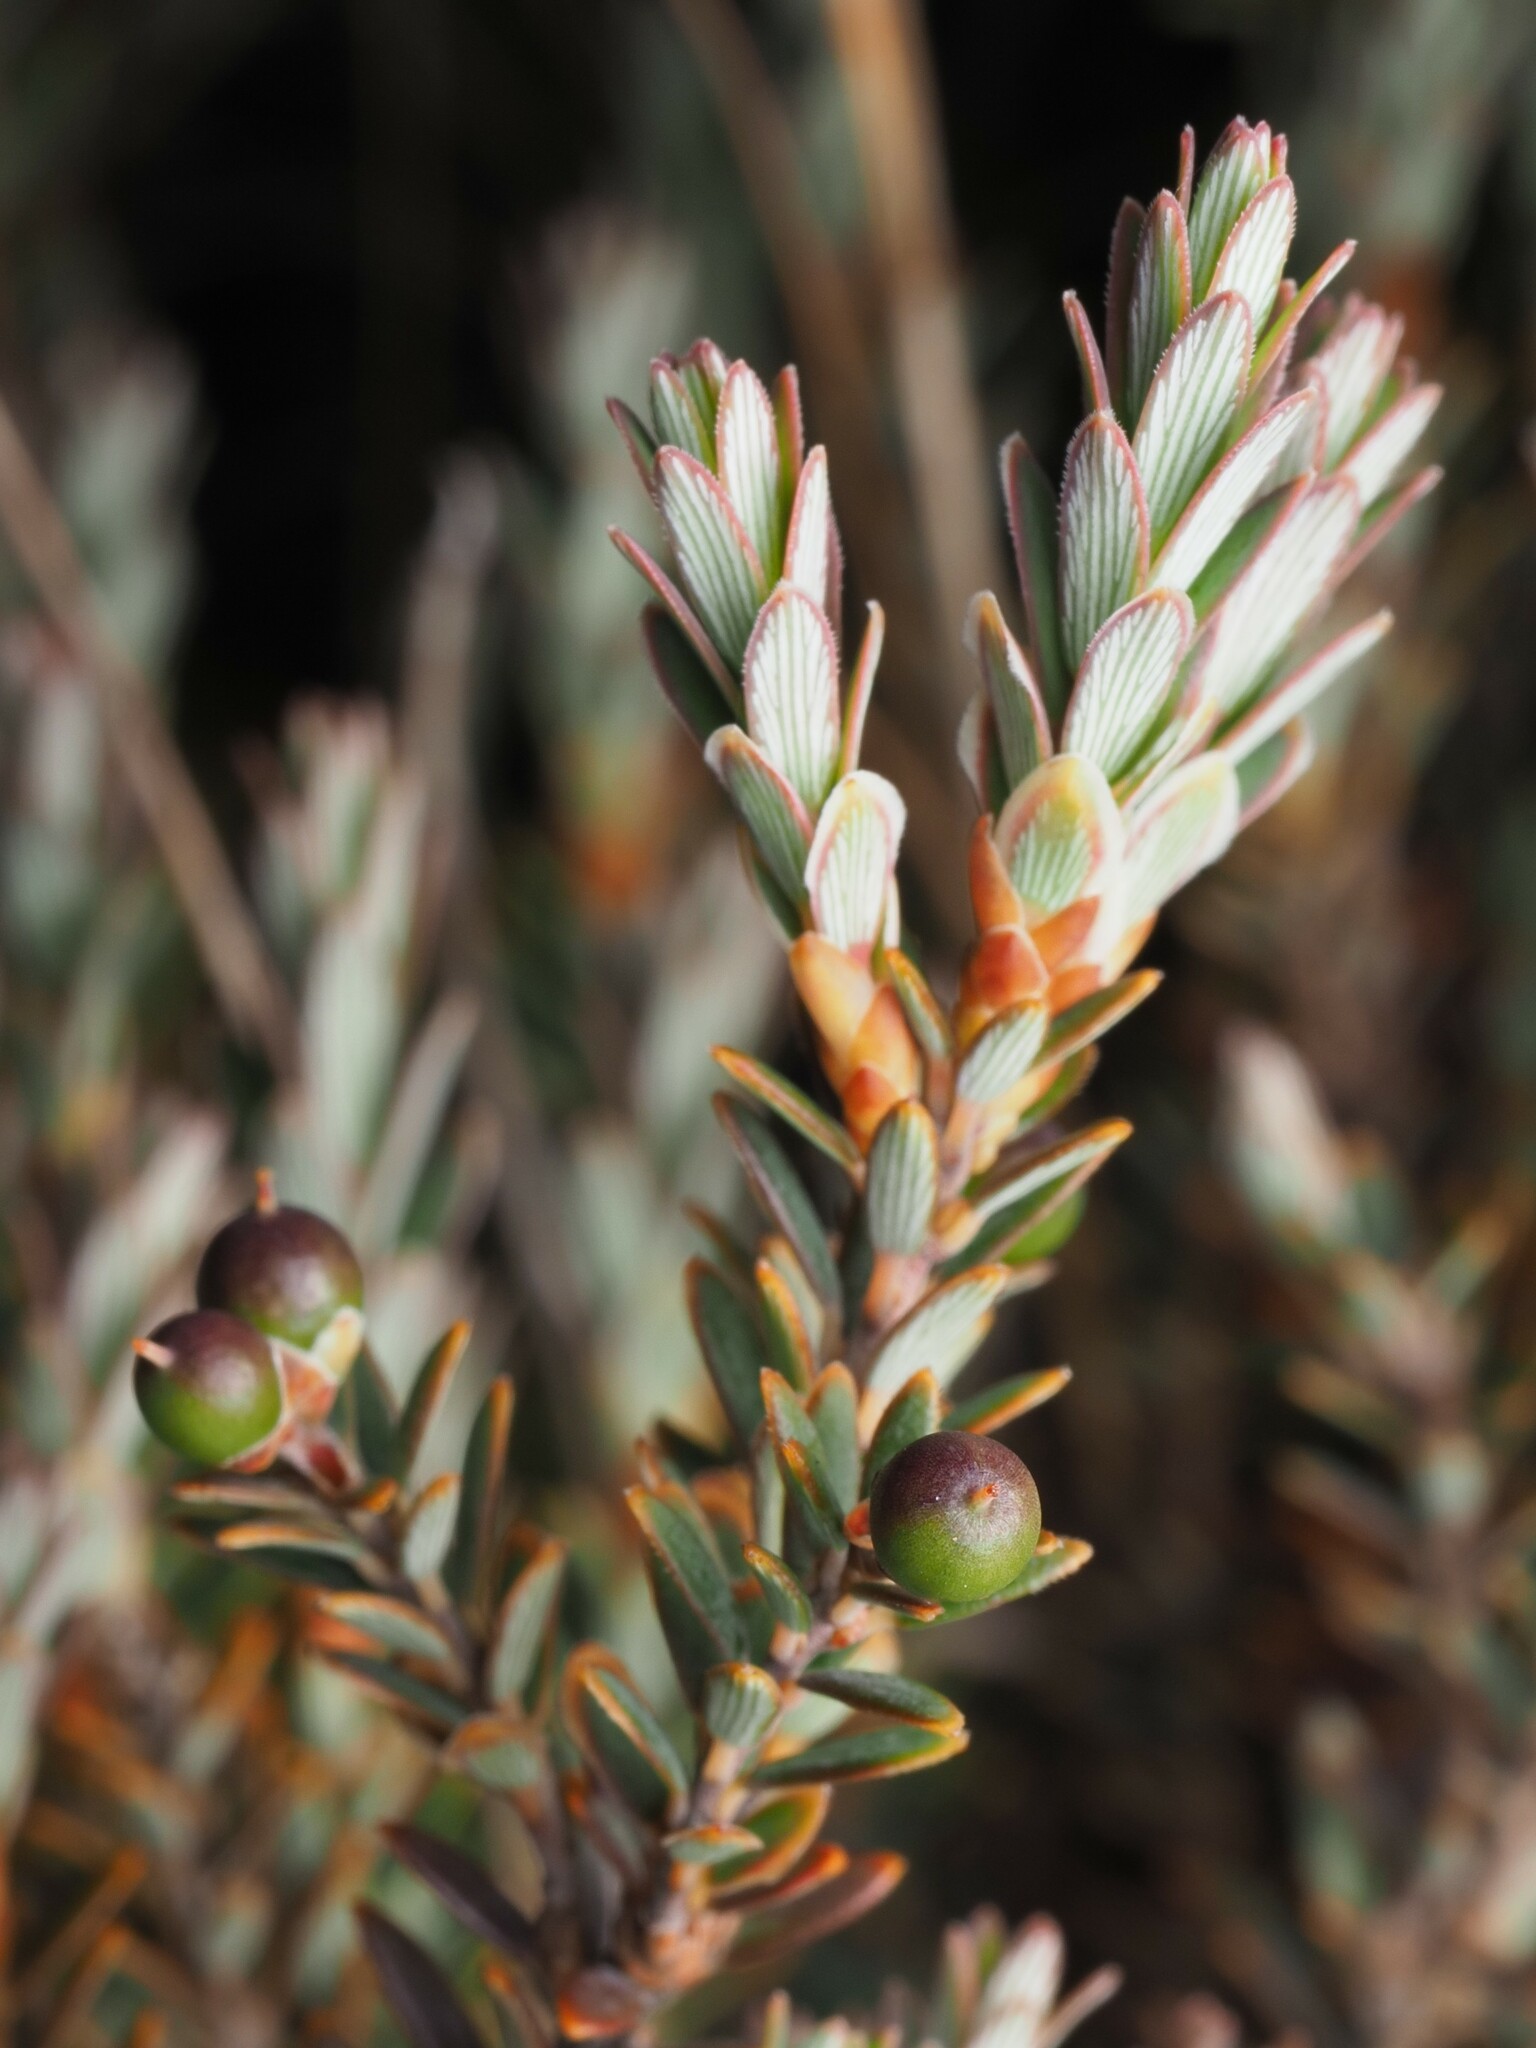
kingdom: Plantae
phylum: Tracheophyta
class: Magnoliopsida
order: Ericales
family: Ericaceae
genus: Acrothamnus
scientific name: Acrothamnus colensoi
